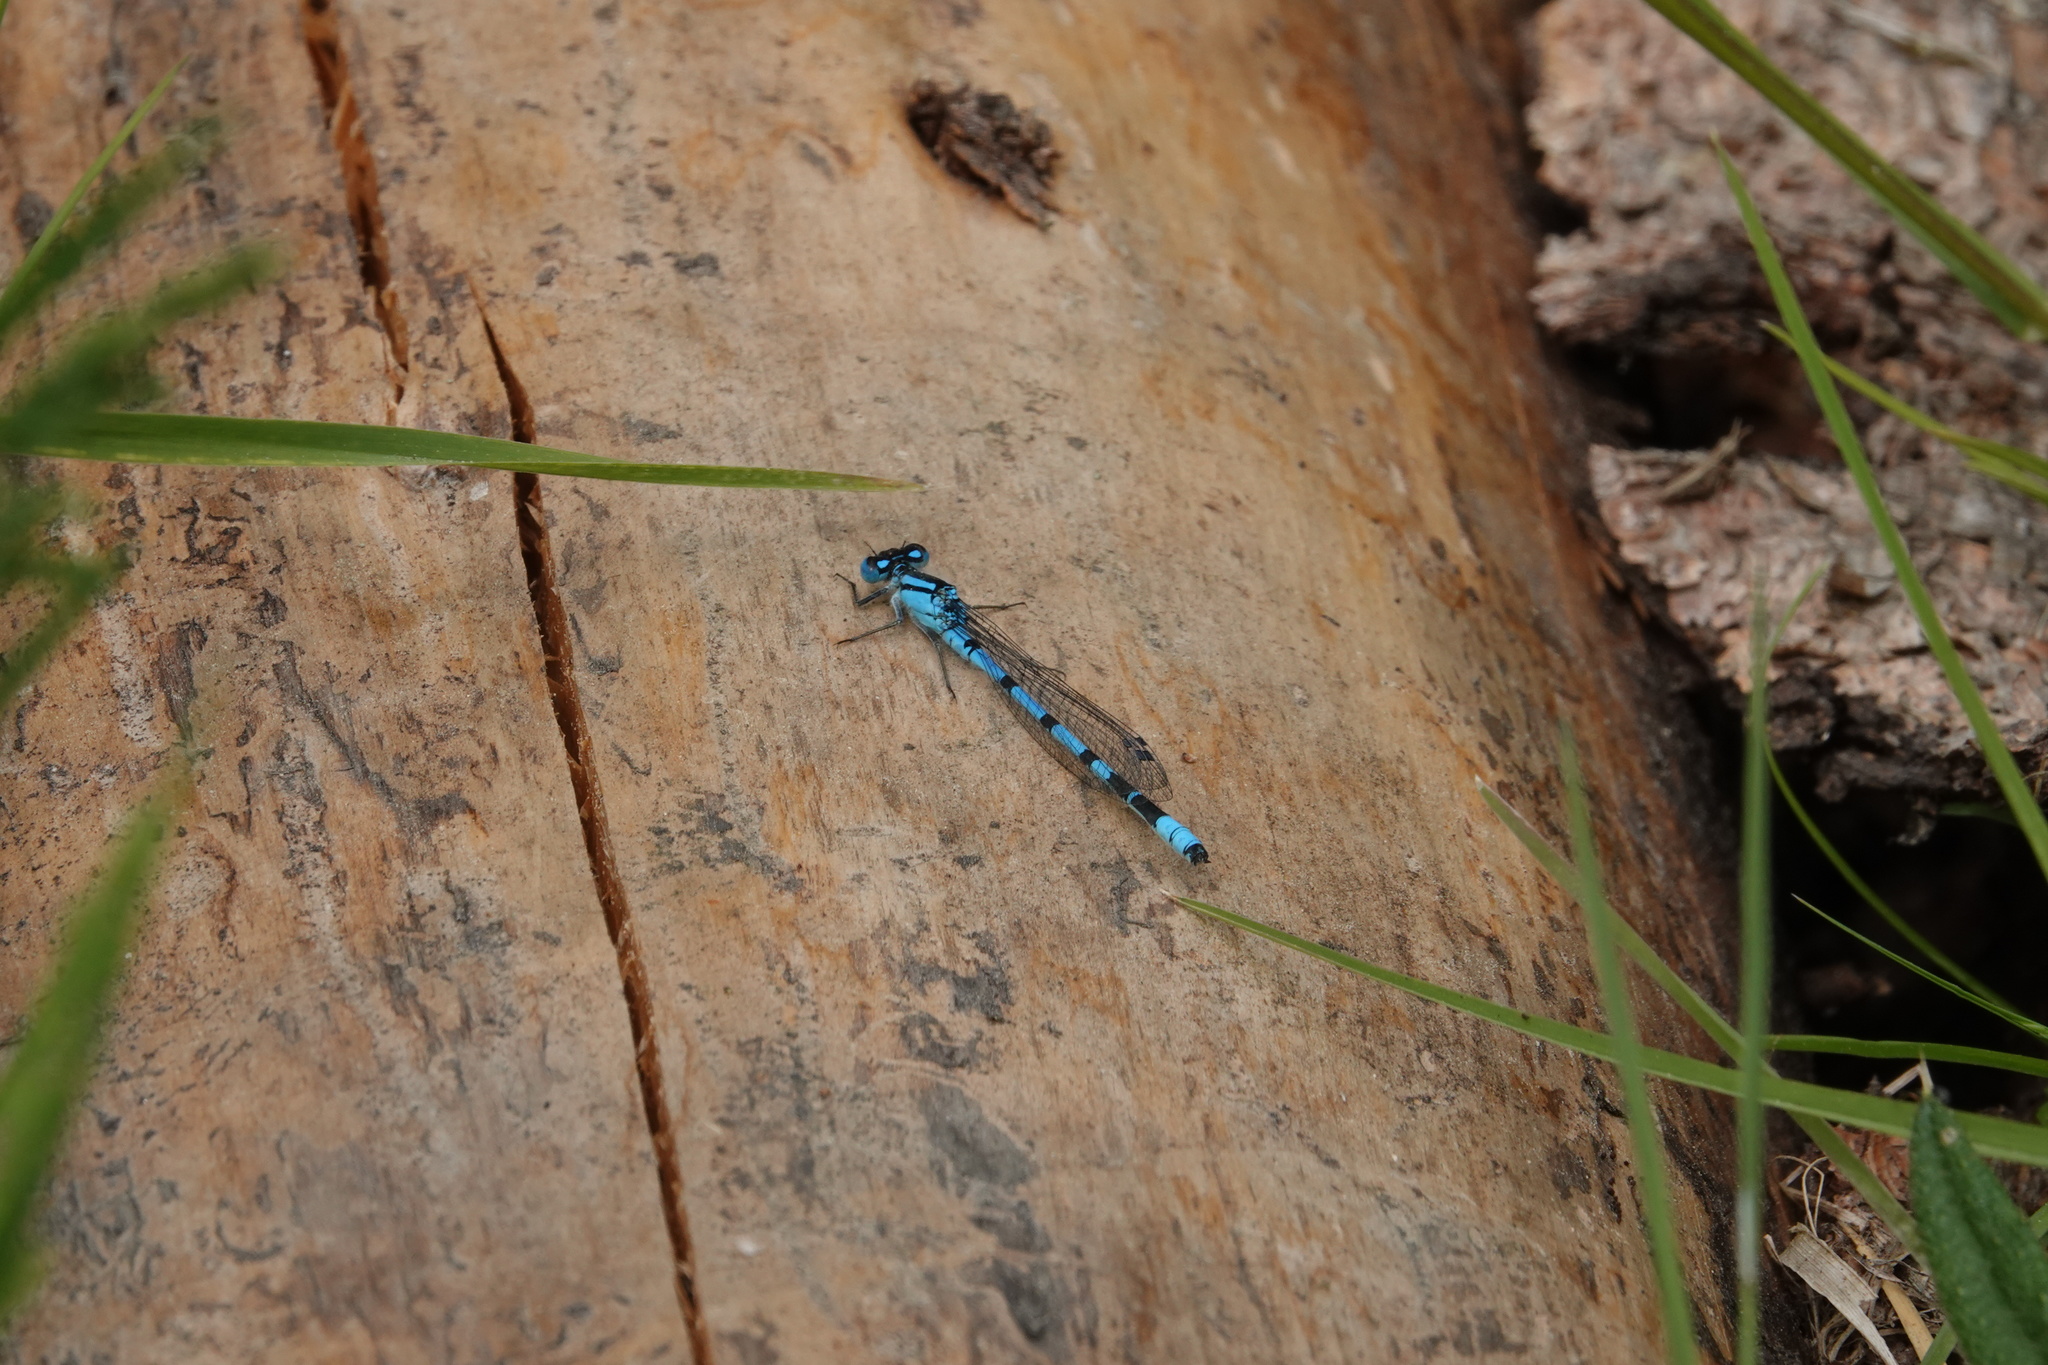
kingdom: Animalia
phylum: Arthropoda
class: Insecta
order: Odonata
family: Coenagrionidae
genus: Enallagma
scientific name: Enallagma cyathigerum
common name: Common blue damselfly
